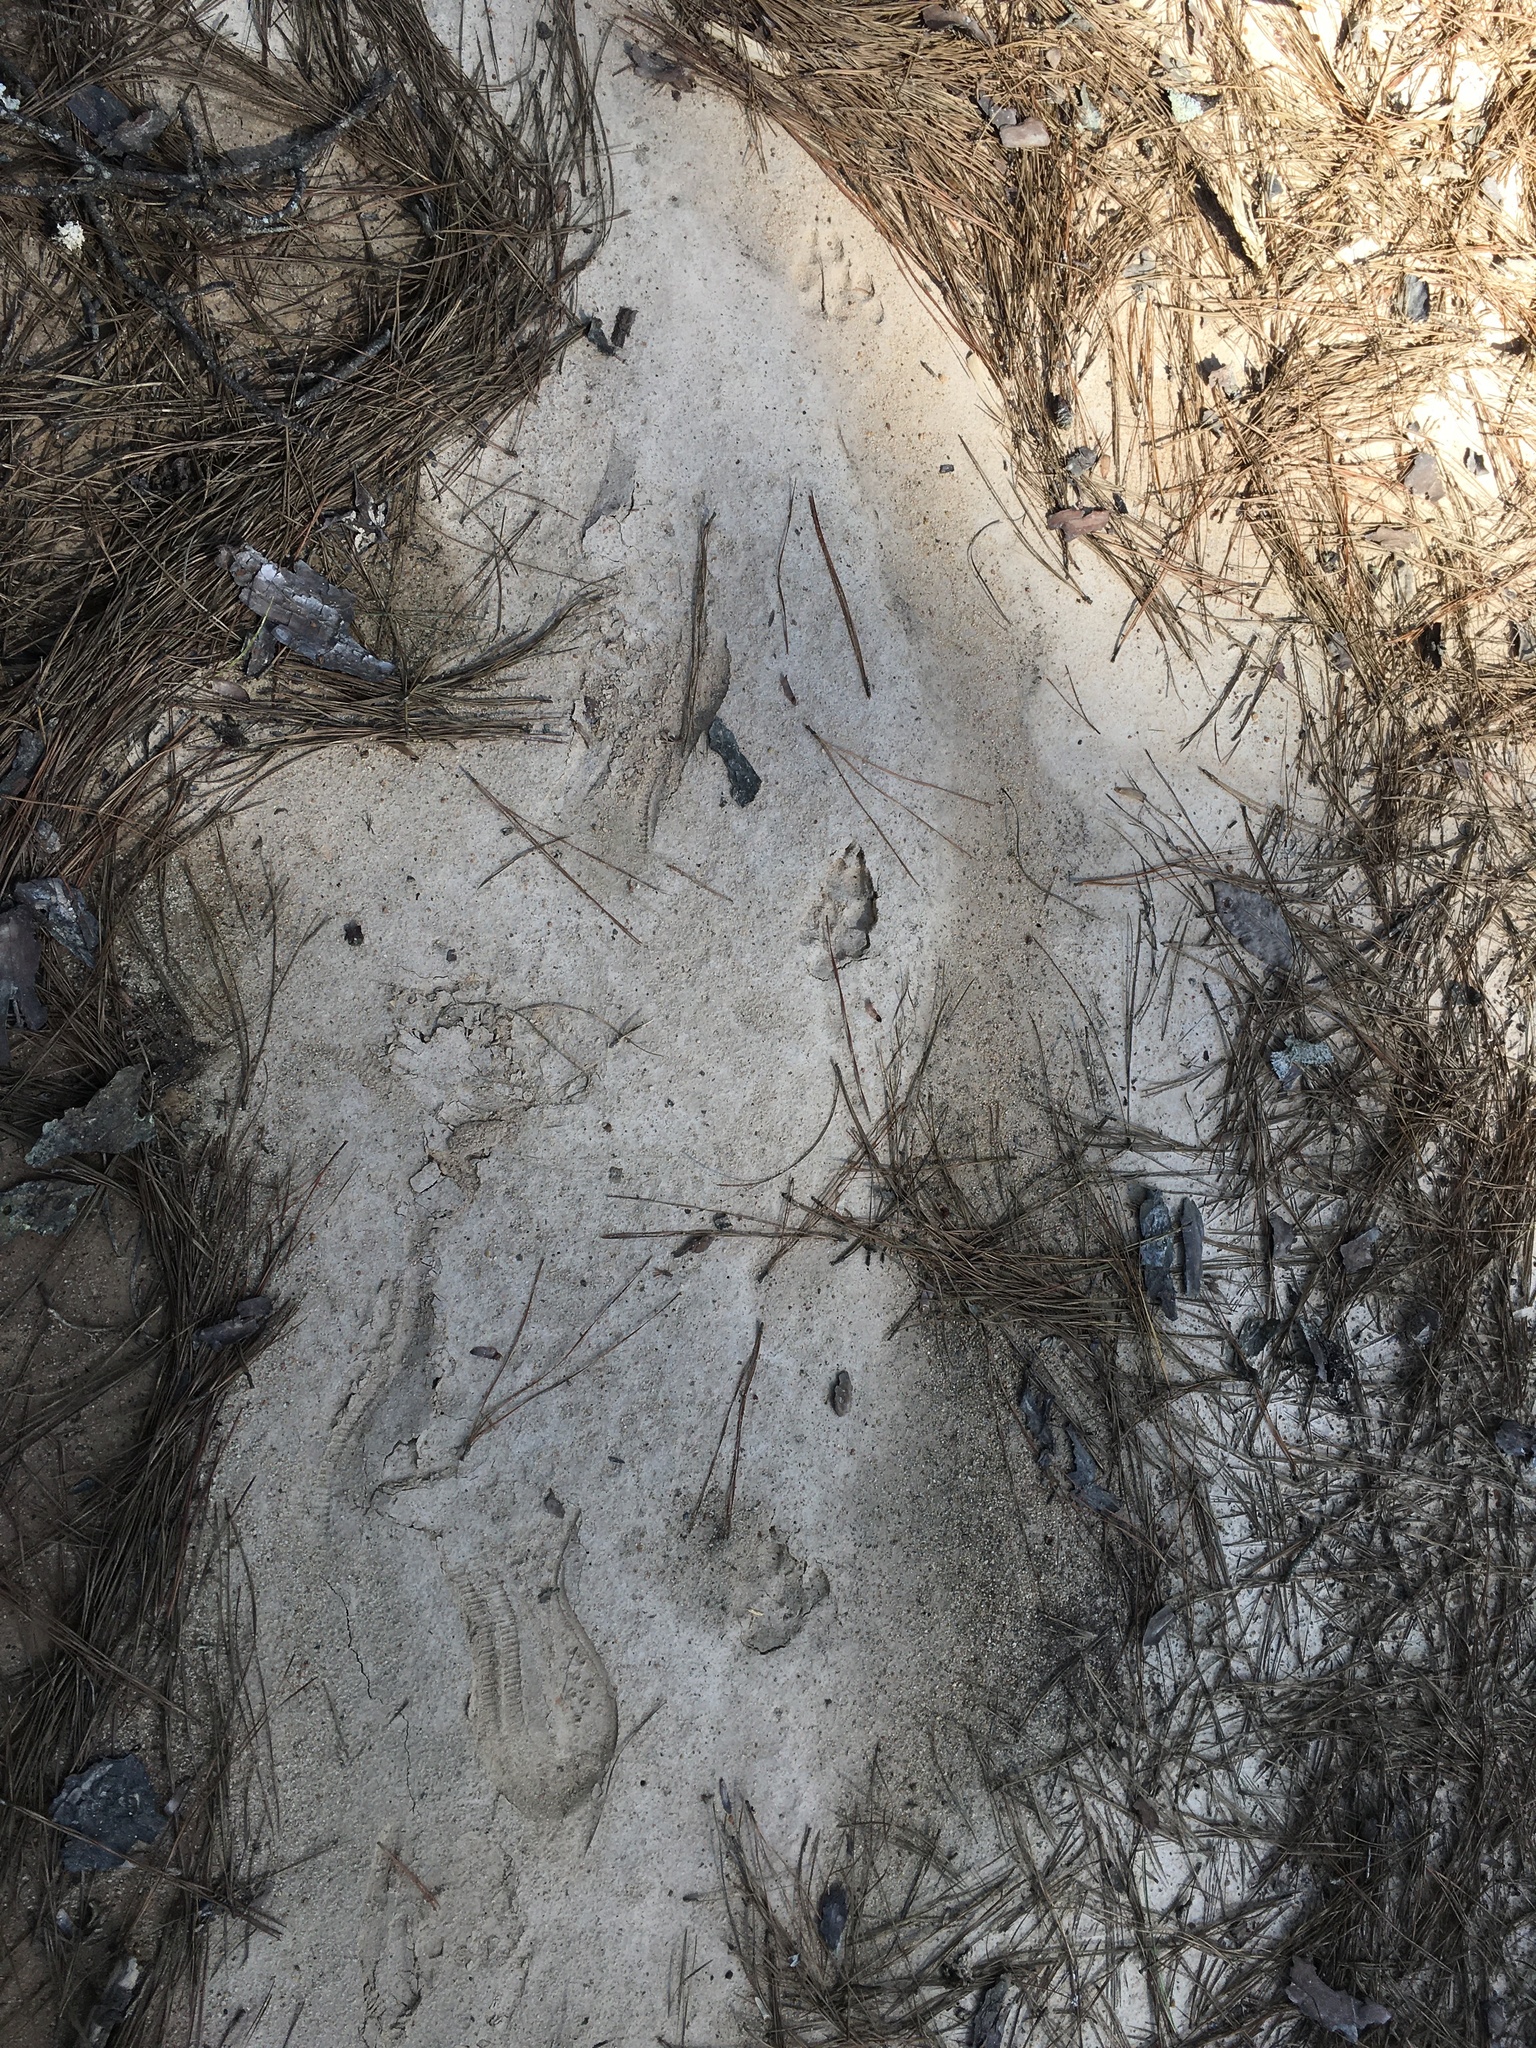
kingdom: Animalia
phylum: Chordata
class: Mammalia
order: Carnivora
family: Canidae
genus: Canis
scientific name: Canis latrans
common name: Coyote
